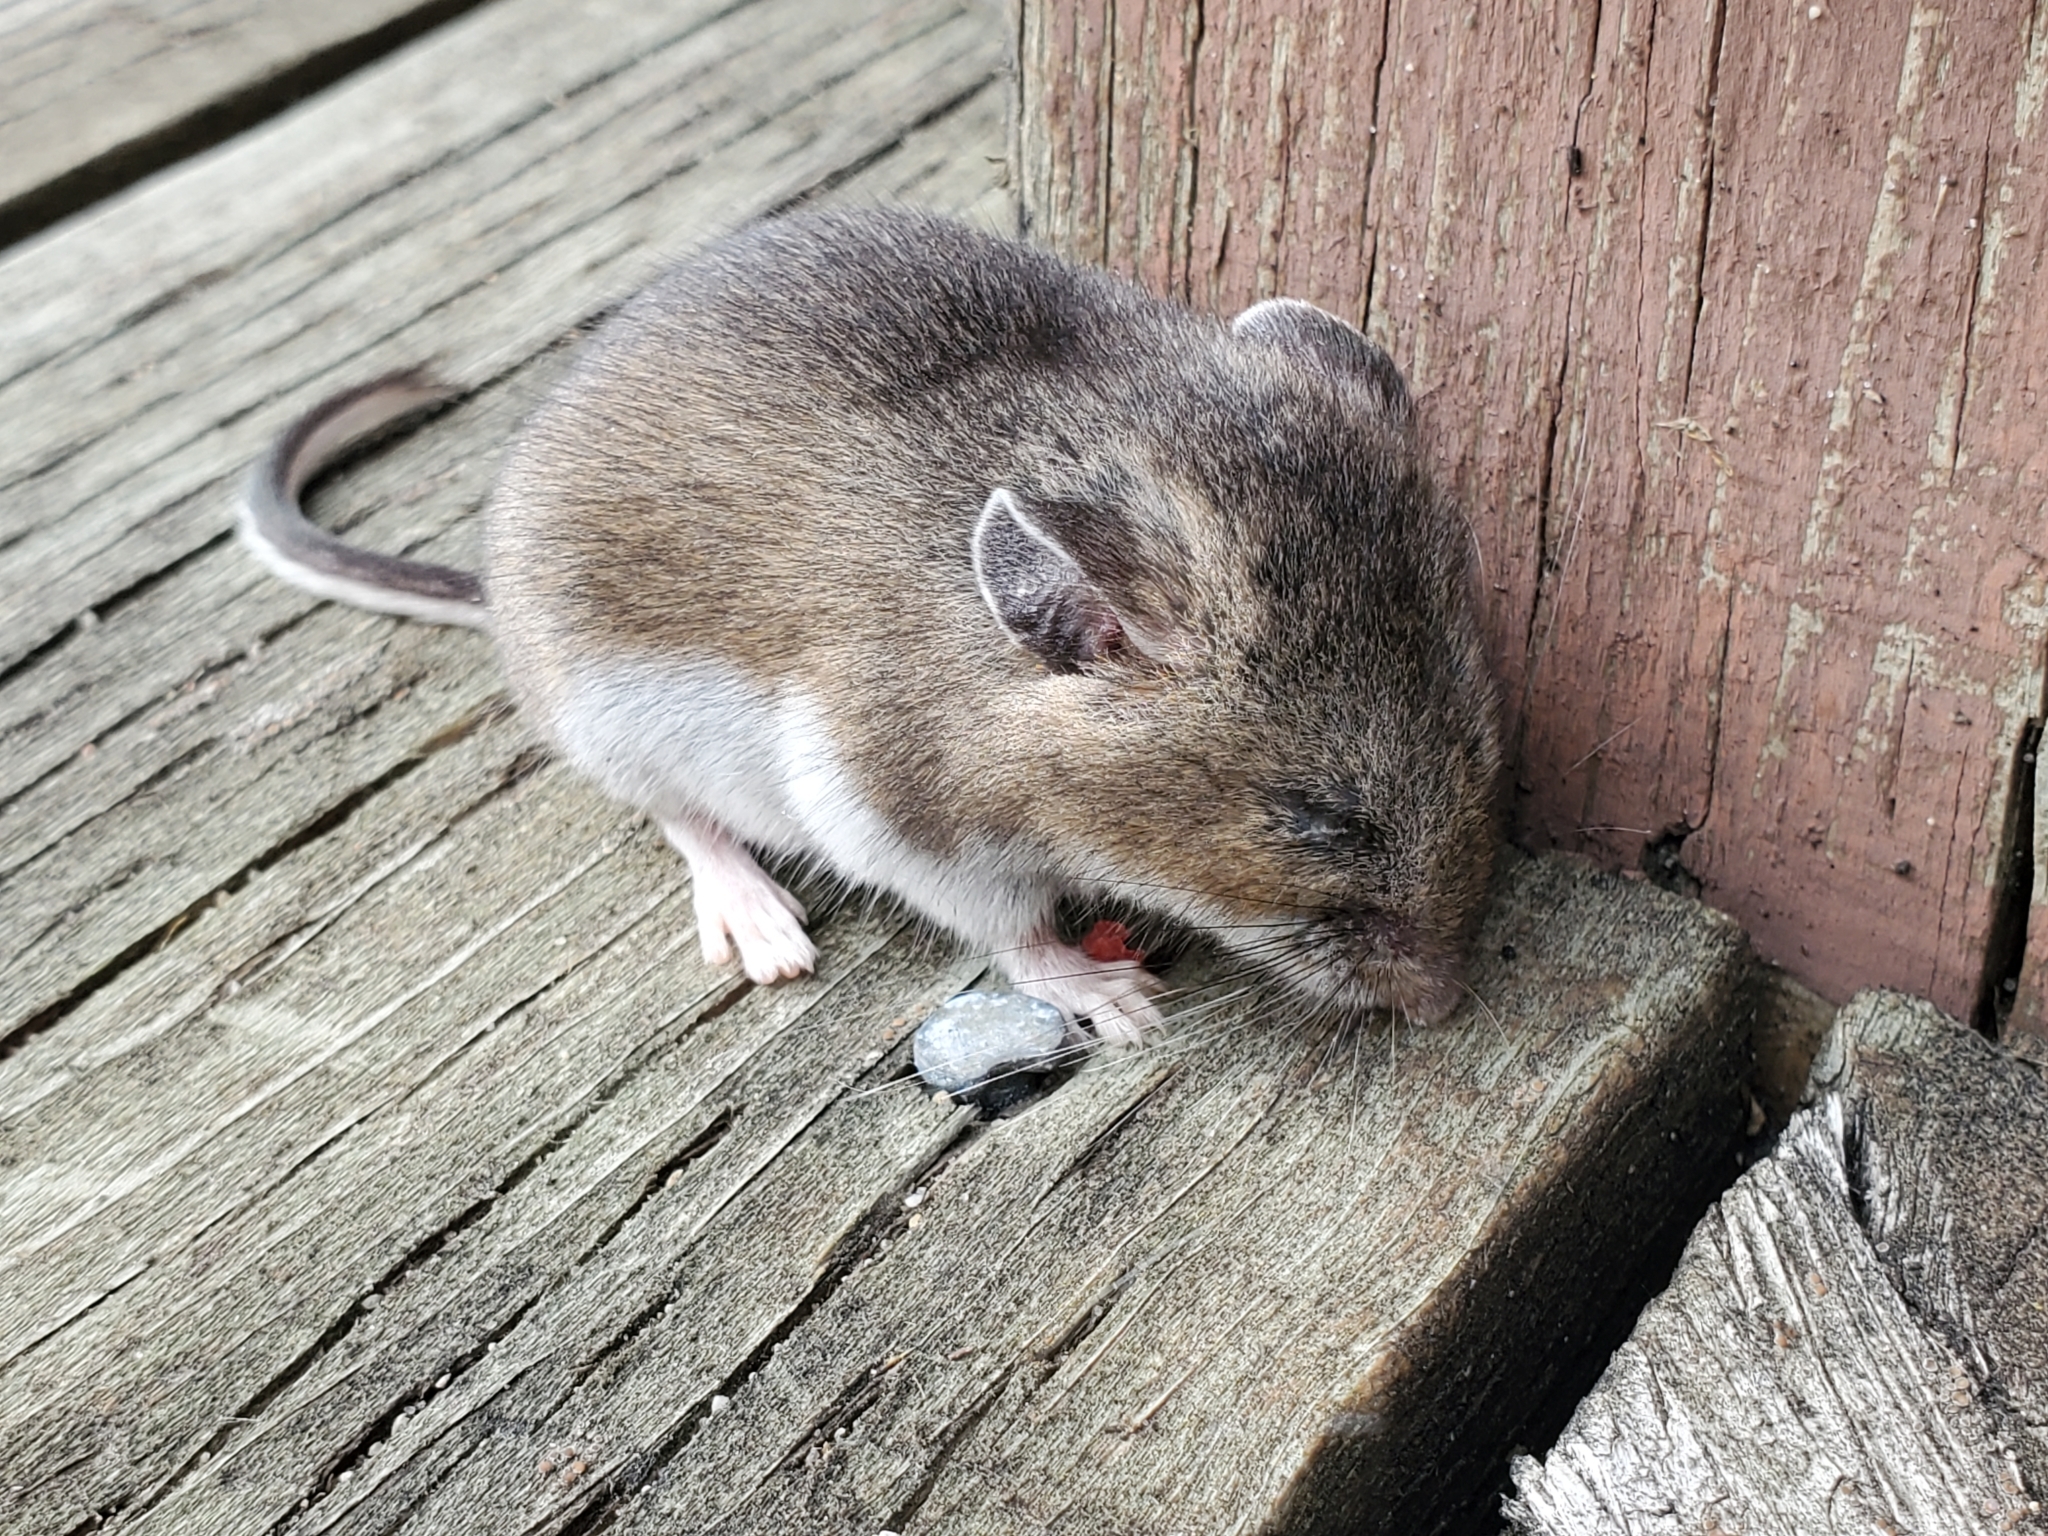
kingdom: Animalia
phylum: Chordata
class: Mammalia
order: Rodentia
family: Cricetidae
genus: Peromyscus
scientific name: Peromyscus maniculatus
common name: Deer mouse
